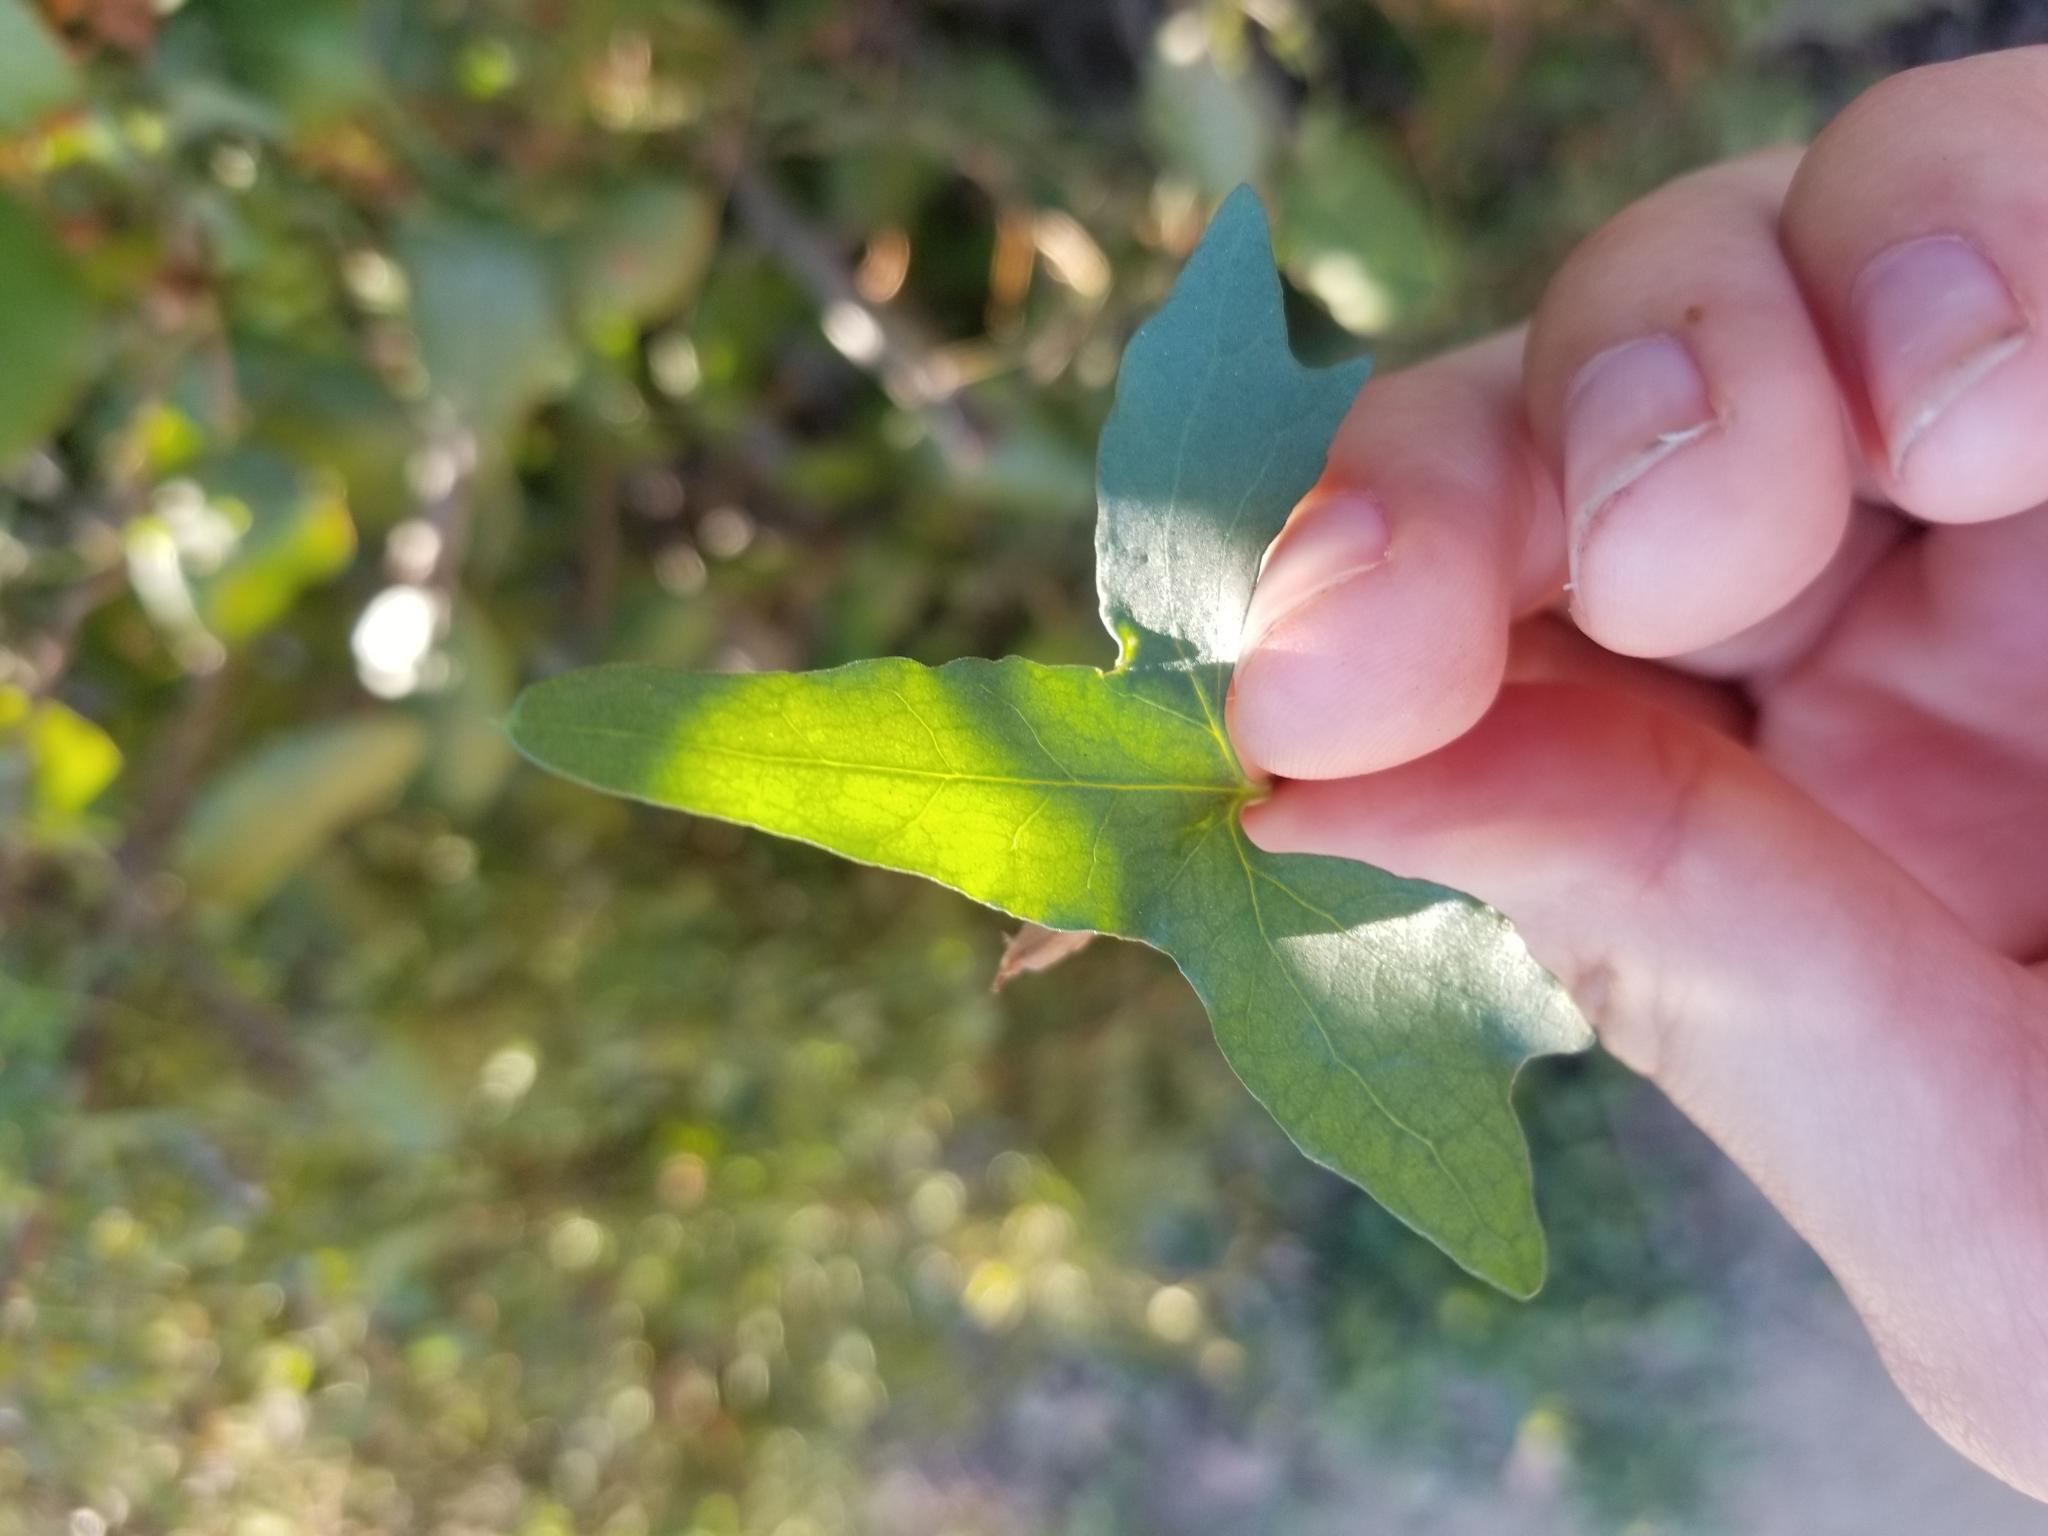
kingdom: Plantae
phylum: Tracheophyta
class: Magnoliopsida
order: Solanales
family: Convolvulaceae
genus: Calystegia
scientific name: Calystegia macrostegia
